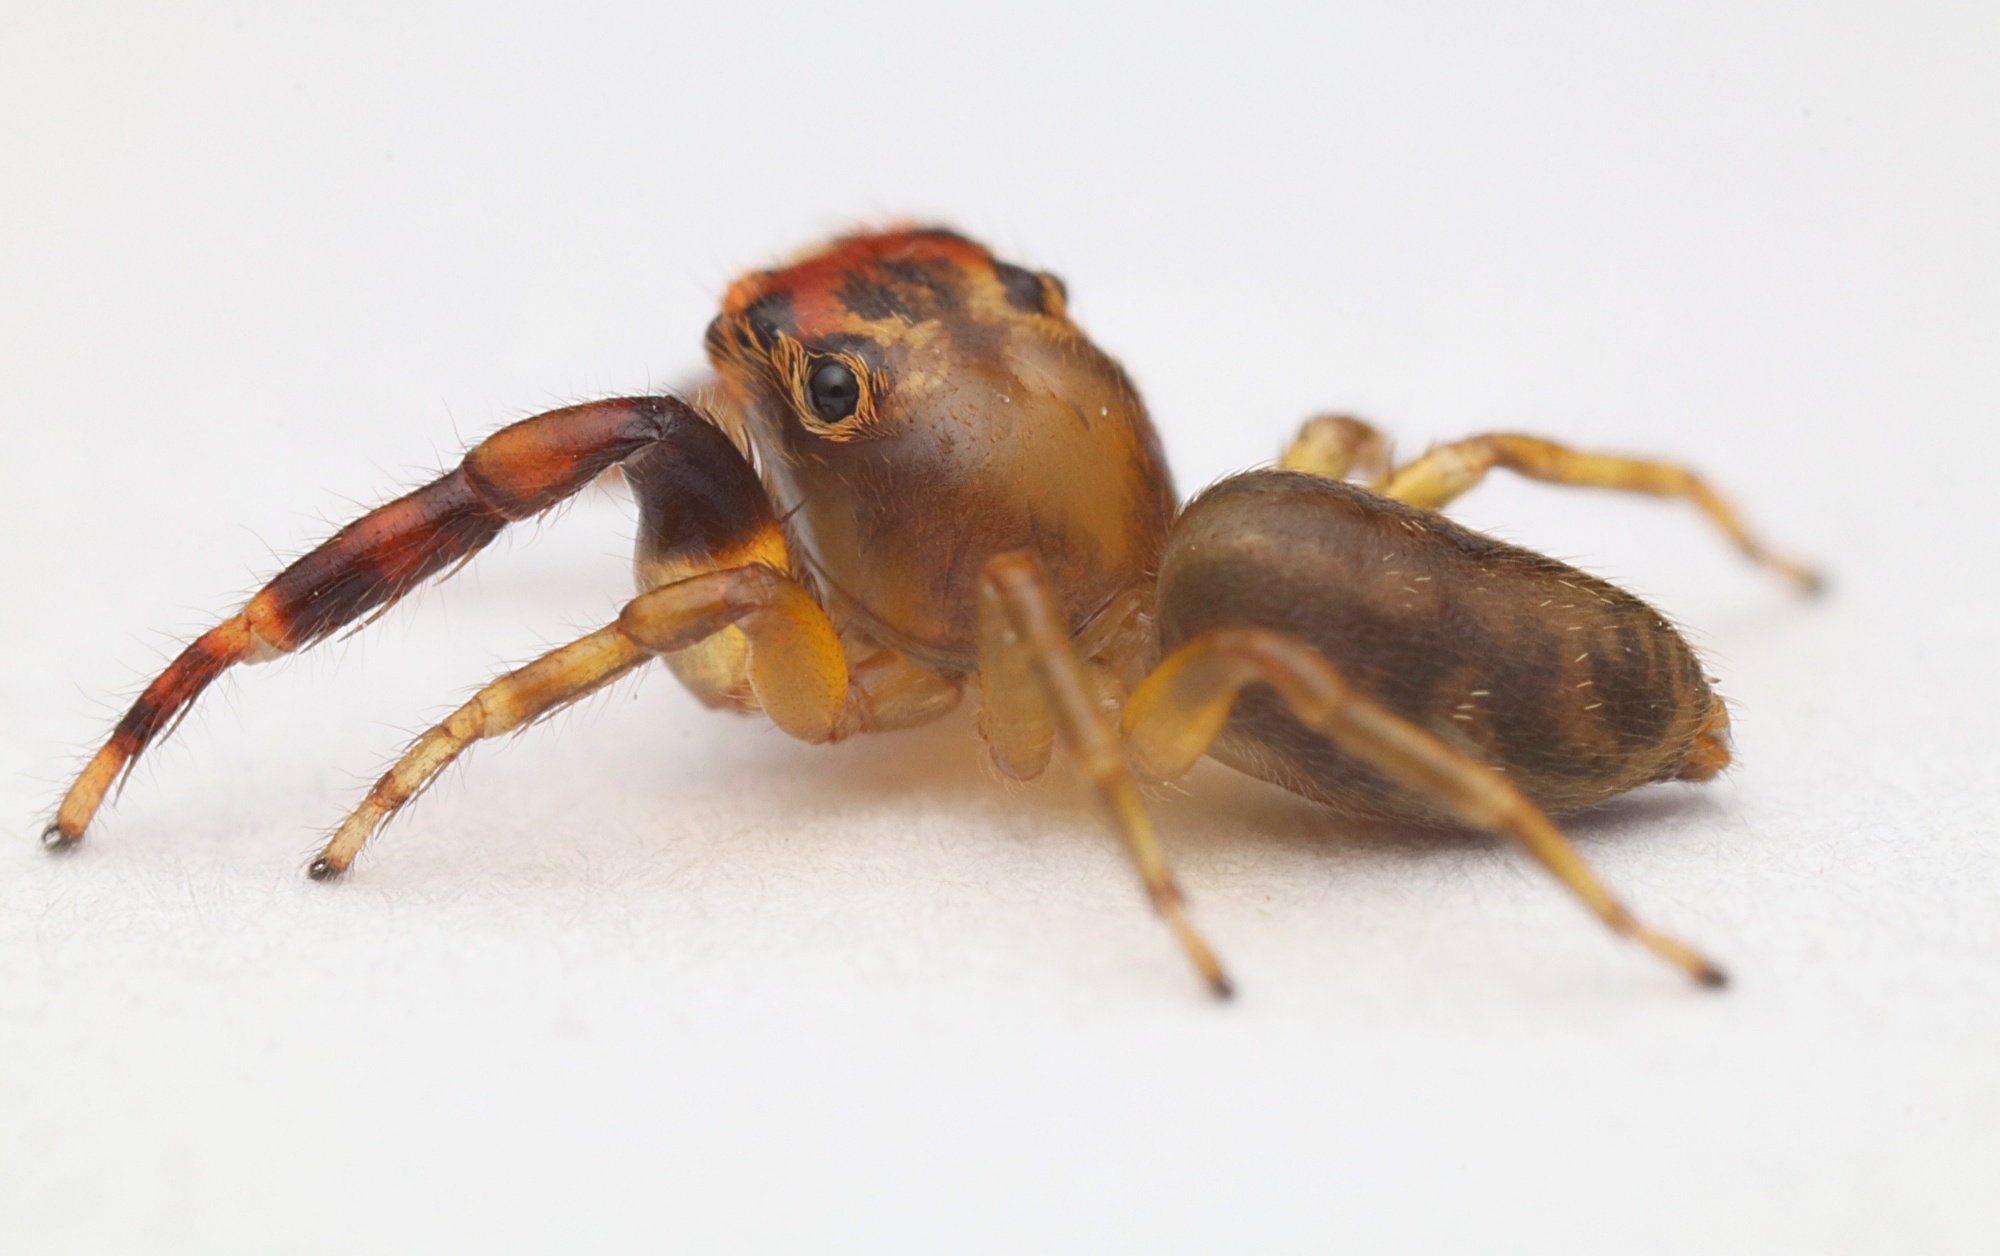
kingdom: Animalia
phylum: Arthropoda
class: Arachnida
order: Araneae
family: Salticidae
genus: Trite
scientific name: Trite mustilina
